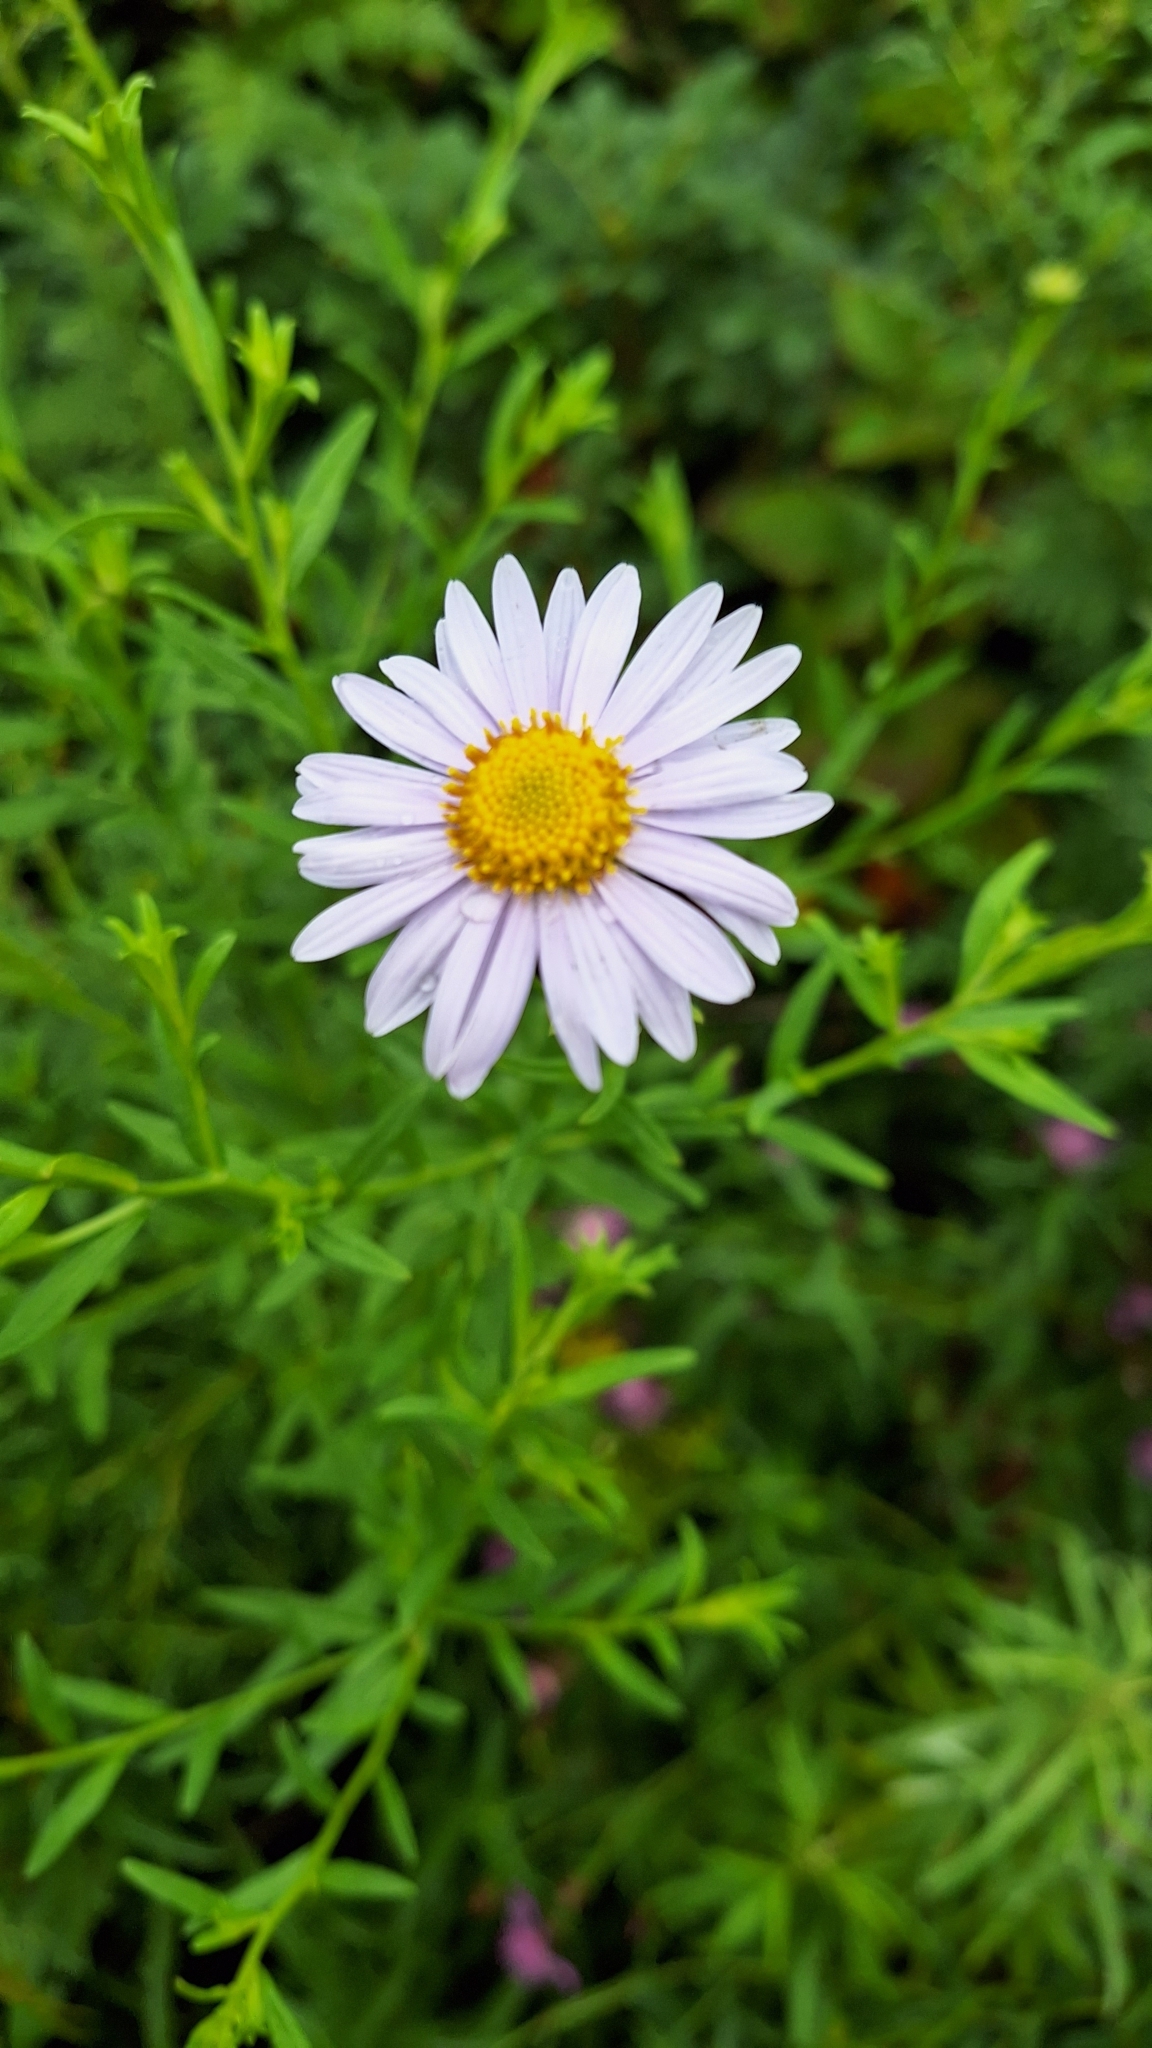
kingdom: Plantae
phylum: Tracheophyta
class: Magnoliopsida
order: Asterales
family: Asteraceae
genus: Kalimeris
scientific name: Kalimeris incisa
